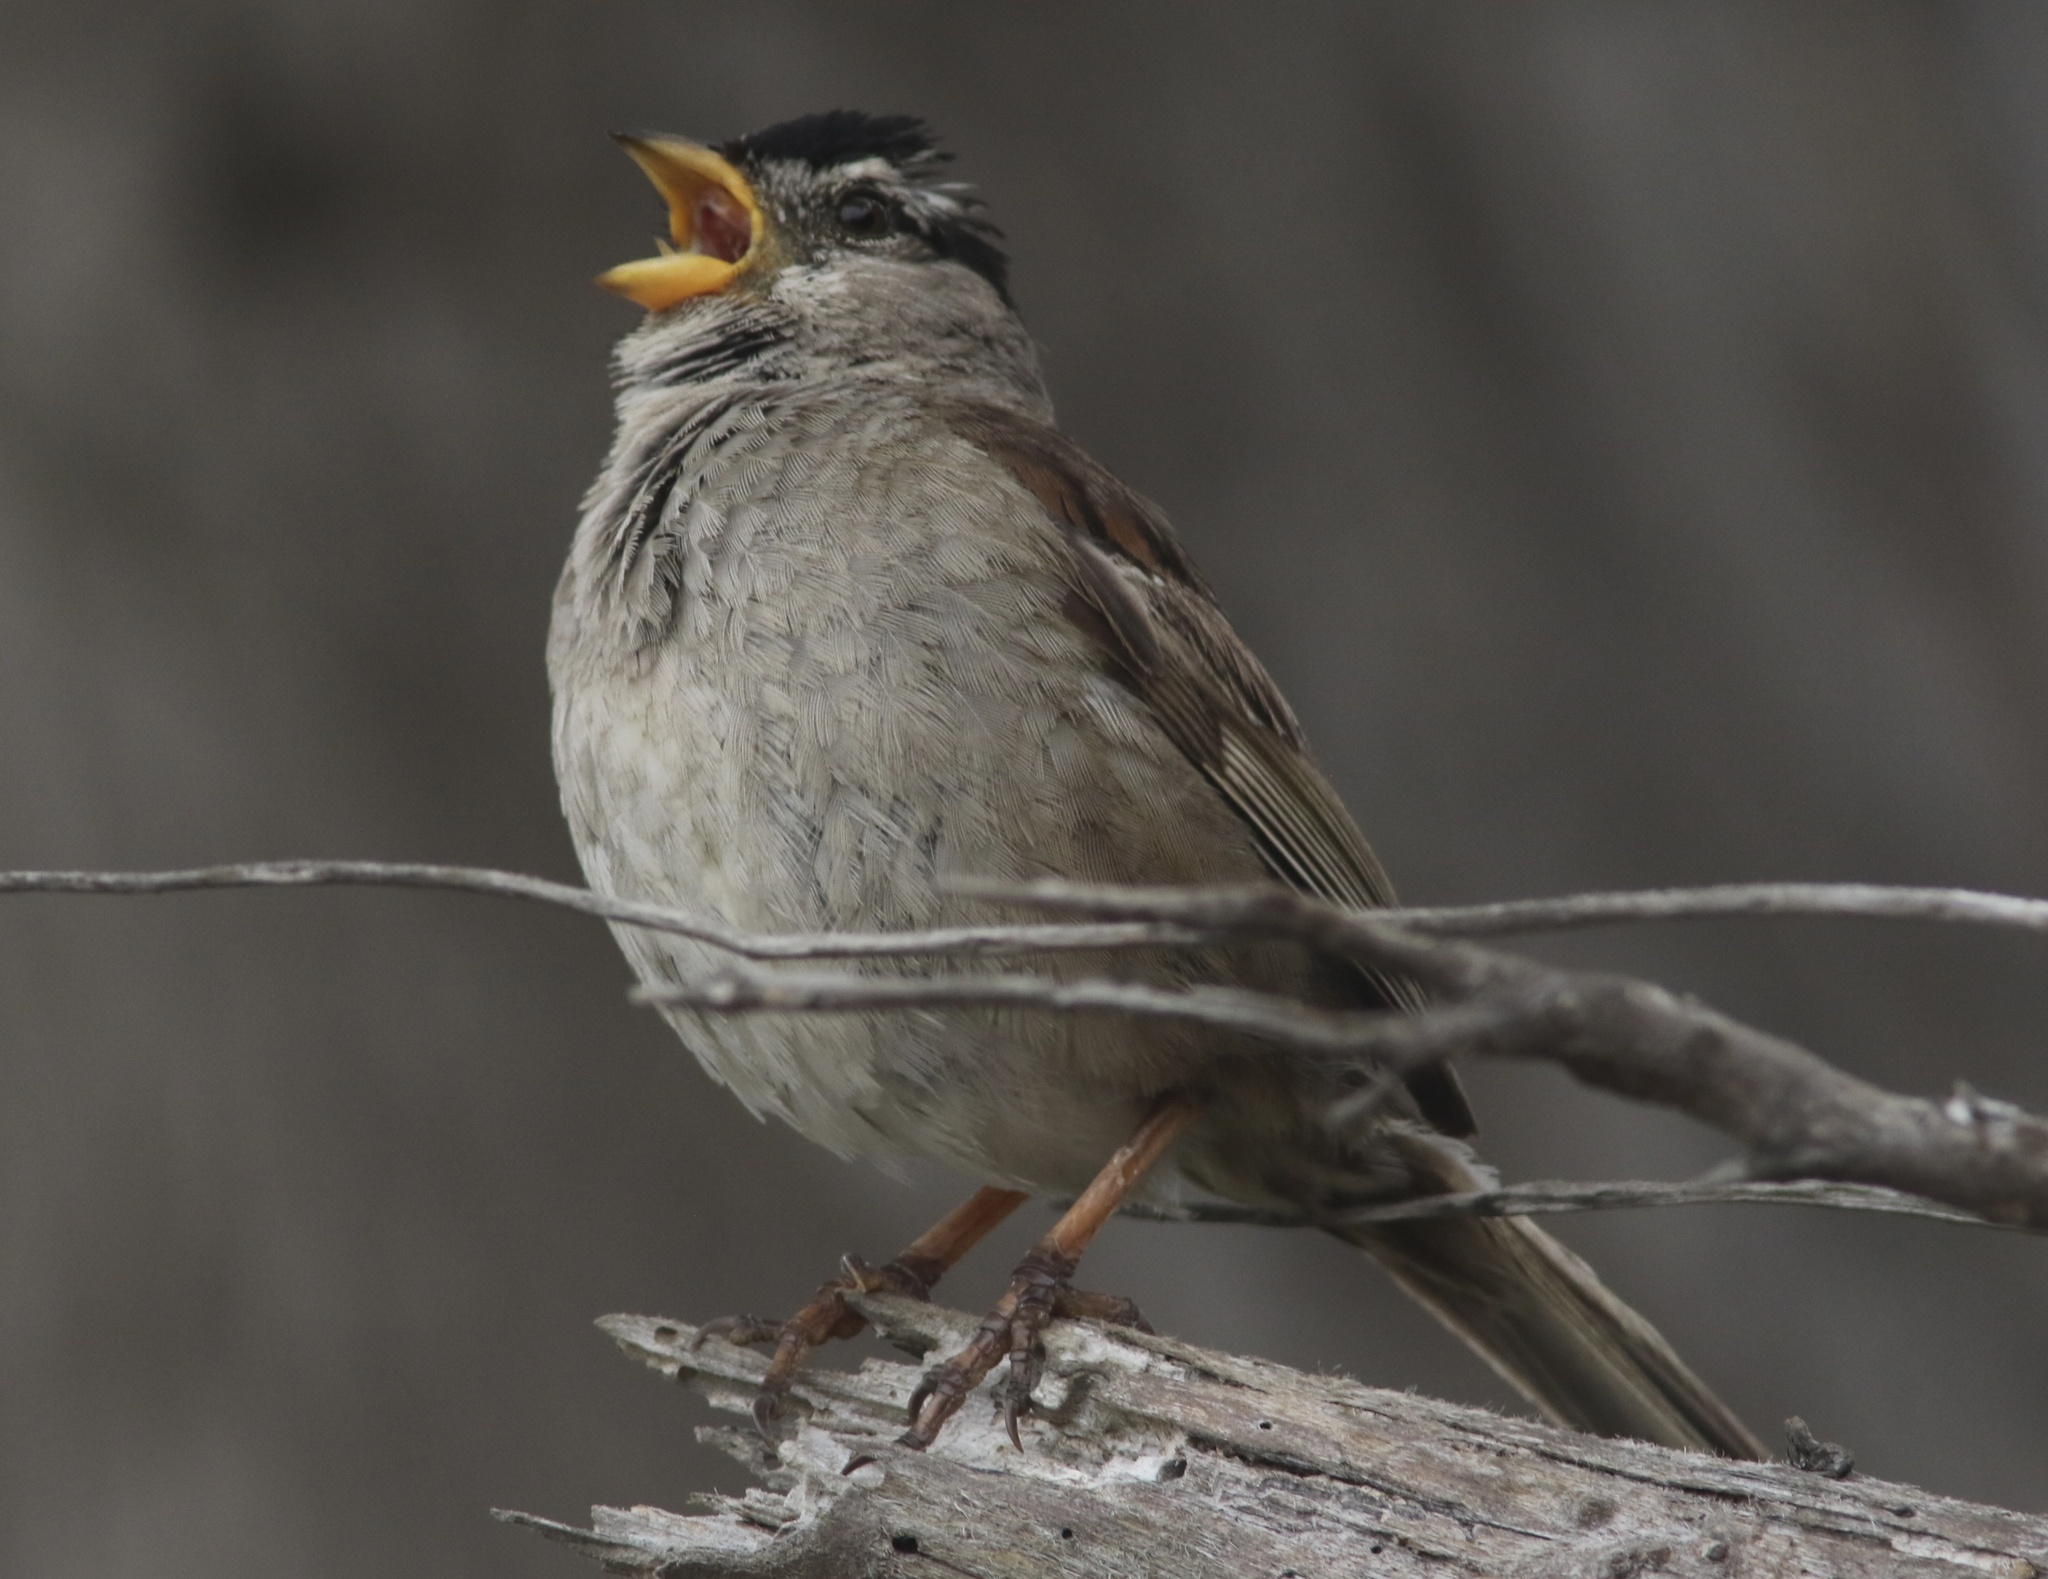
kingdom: Animalia
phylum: Chordata
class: Aves
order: Passeriformes
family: Passerellidae
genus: Zonotrichia
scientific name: Zonotrichia leucophrys
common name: White-crowned sparrow
